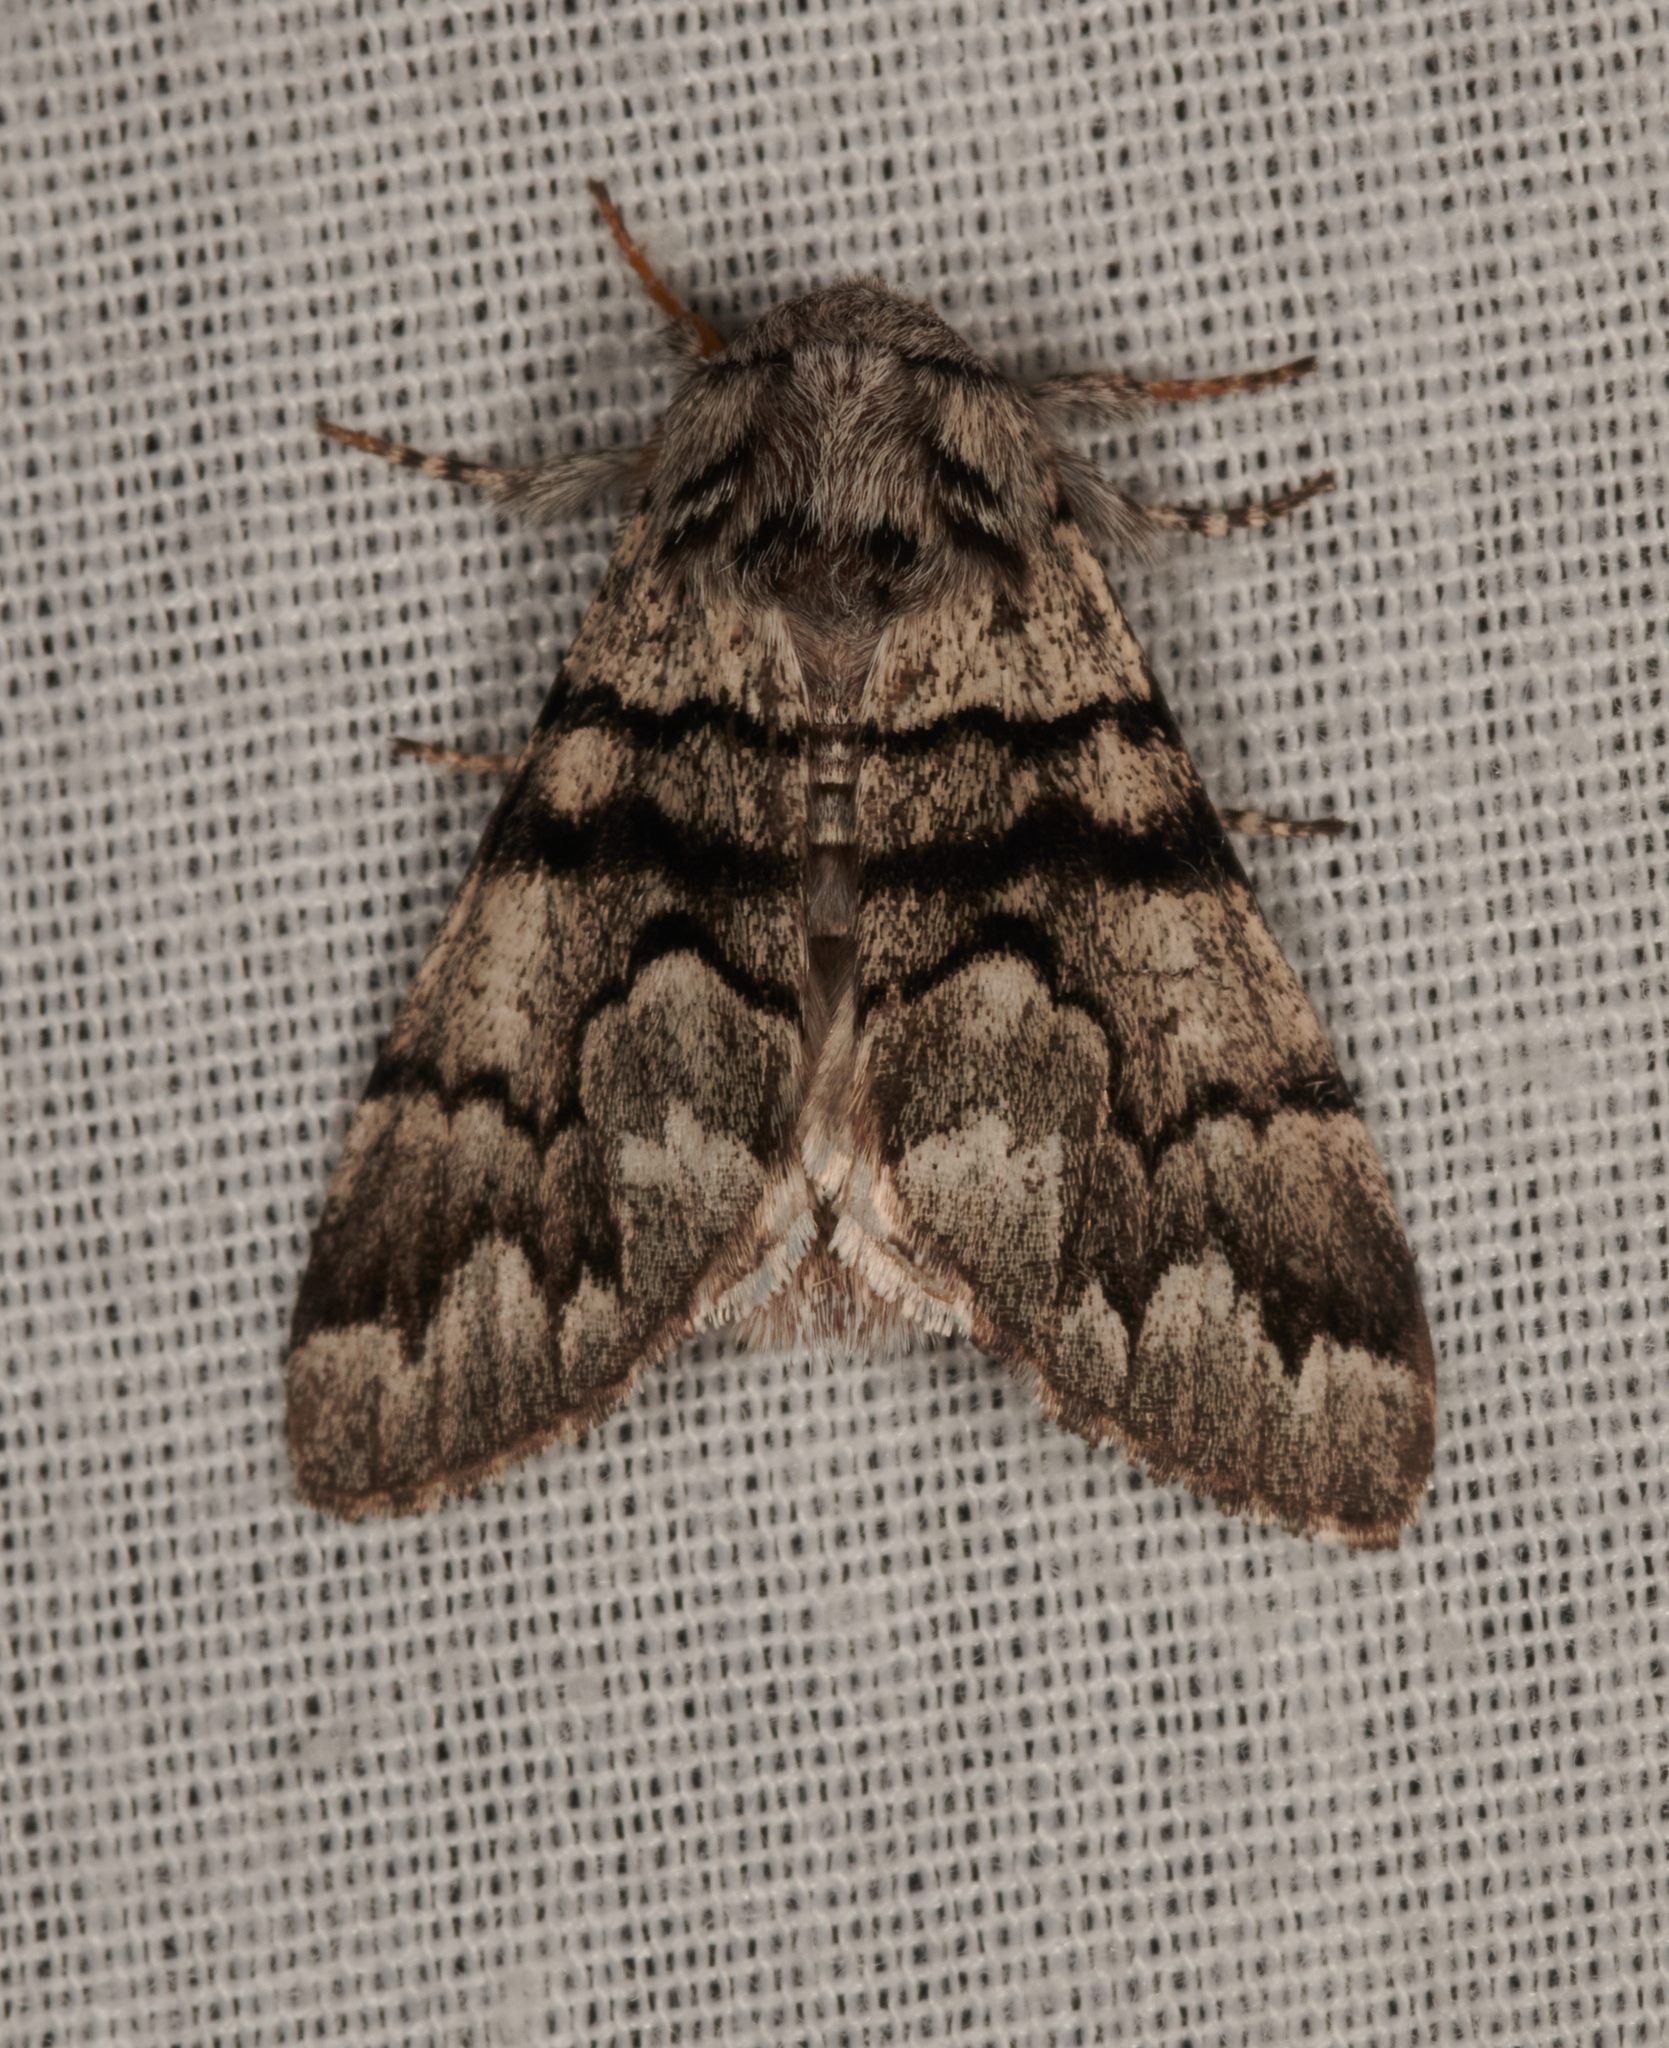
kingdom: Animalia
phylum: Arthropoda
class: Insecta
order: Lepidoptera
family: Noctuidae
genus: Panthea
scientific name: Panthea furcilla
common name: Eastern panthea moth
